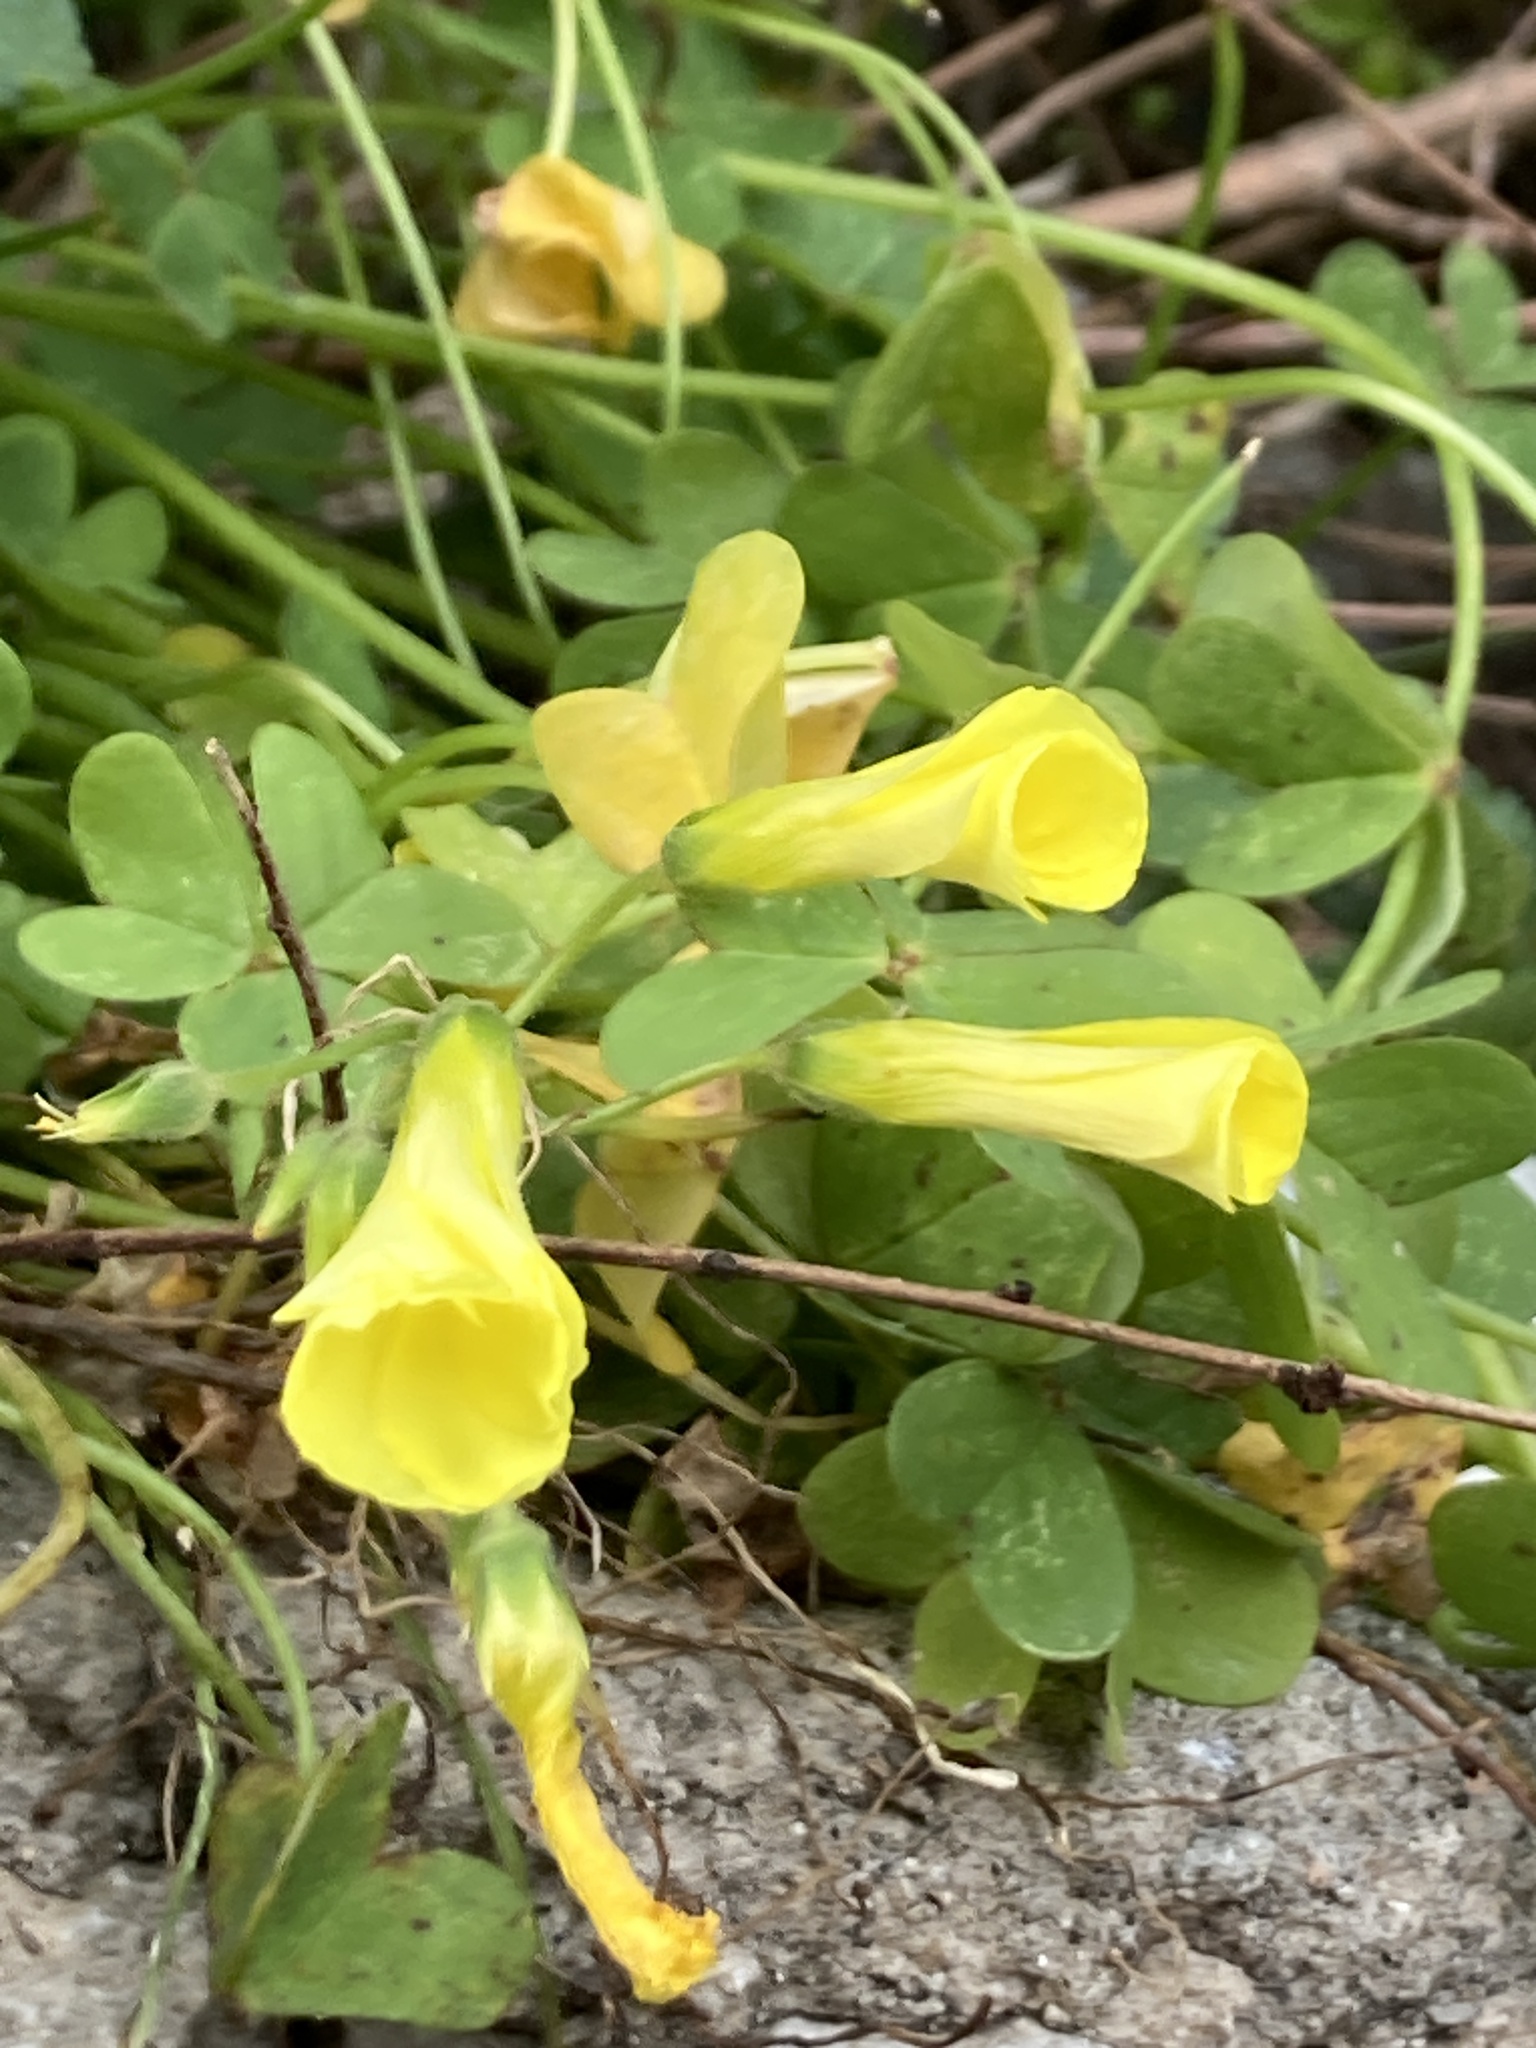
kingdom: Plantae
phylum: Tracheophyta
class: Magnoliopsida
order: Oxalidales
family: Oxalidaceae
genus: Oxalis
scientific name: Oxalis pes-caprae
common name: Bermuda-buttercup
